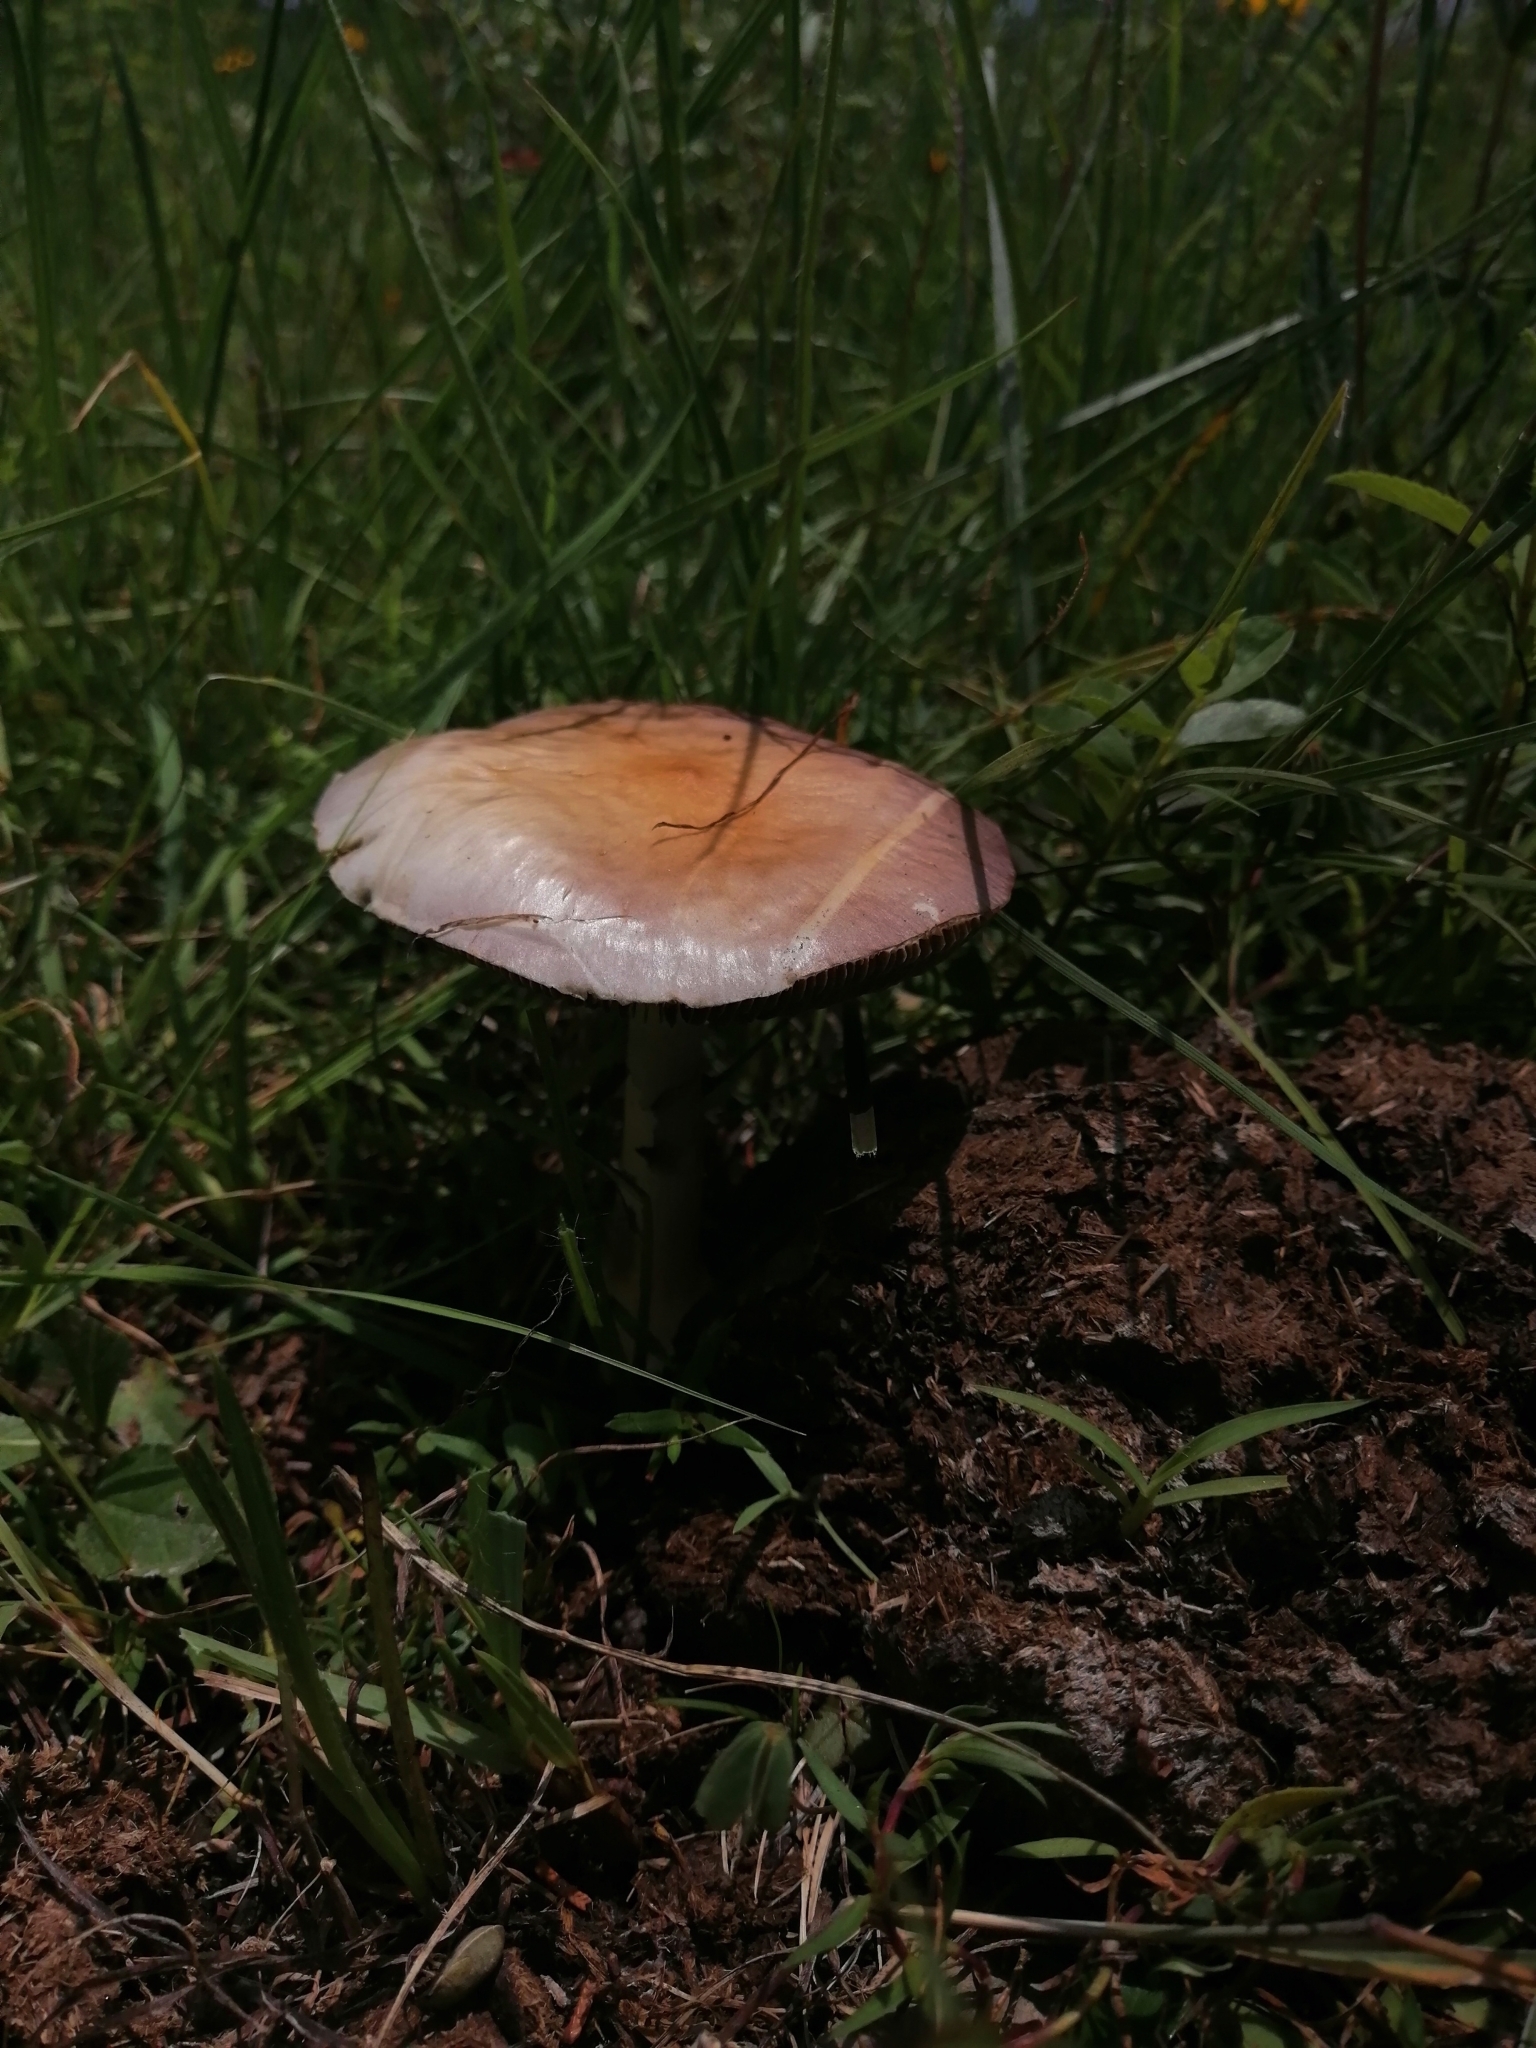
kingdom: Fungi
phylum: Basidiomycota
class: Agaricomycetes
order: Agaricales
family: Hymenogastraceae
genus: Psilocybe
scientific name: Psilocybe cubensis
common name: Golden brownie
